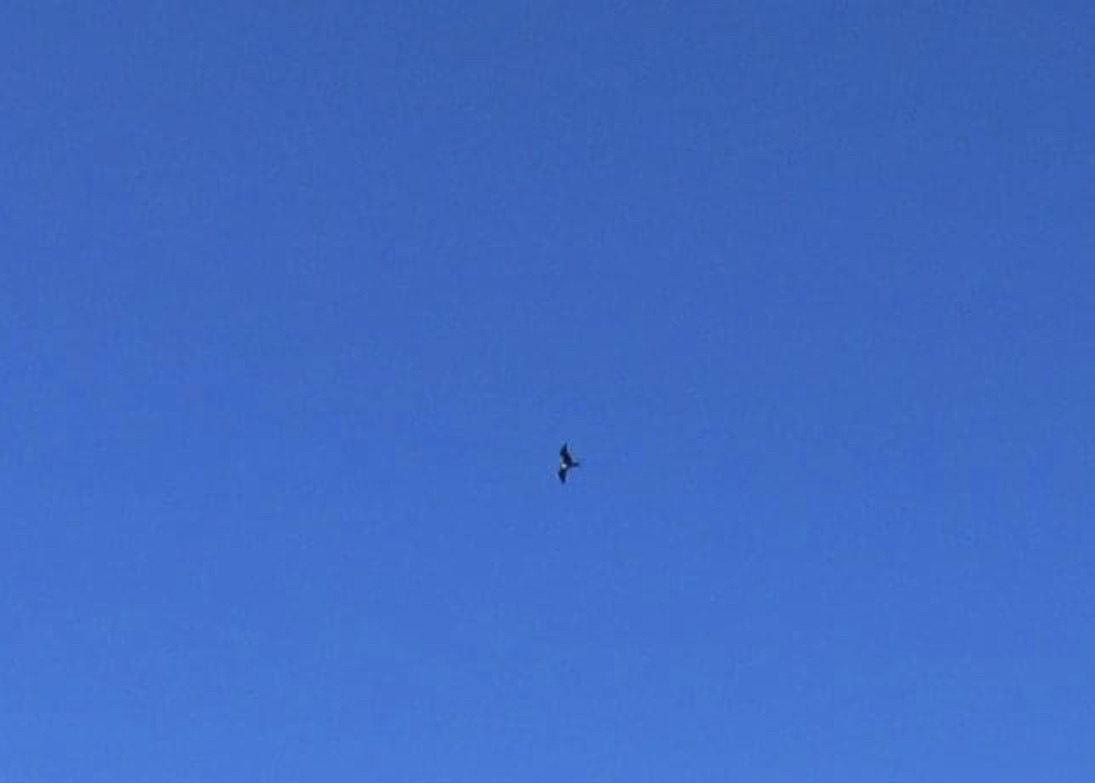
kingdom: Animalia
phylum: Chordata
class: Aves
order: Suliformes
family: Fregatidae
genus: Fregata
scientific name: Fregata magnificens
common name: Magnificent frigatebird
